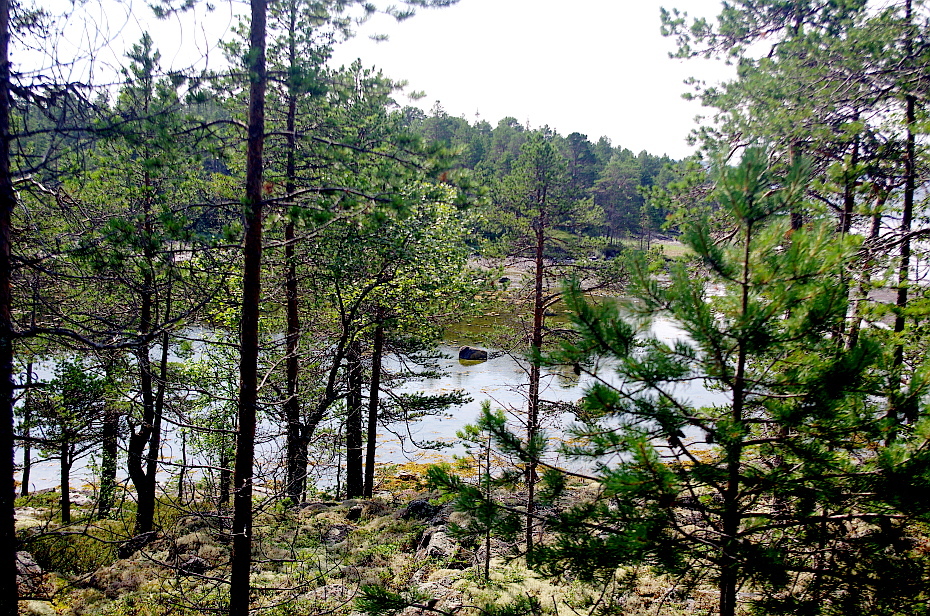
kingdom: Plantae
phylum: Tracheophyta
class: Pinopsida
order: Pinales
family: Pinaceae
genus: Pinus
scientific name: Pinus sylvestris
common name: Scots pine
